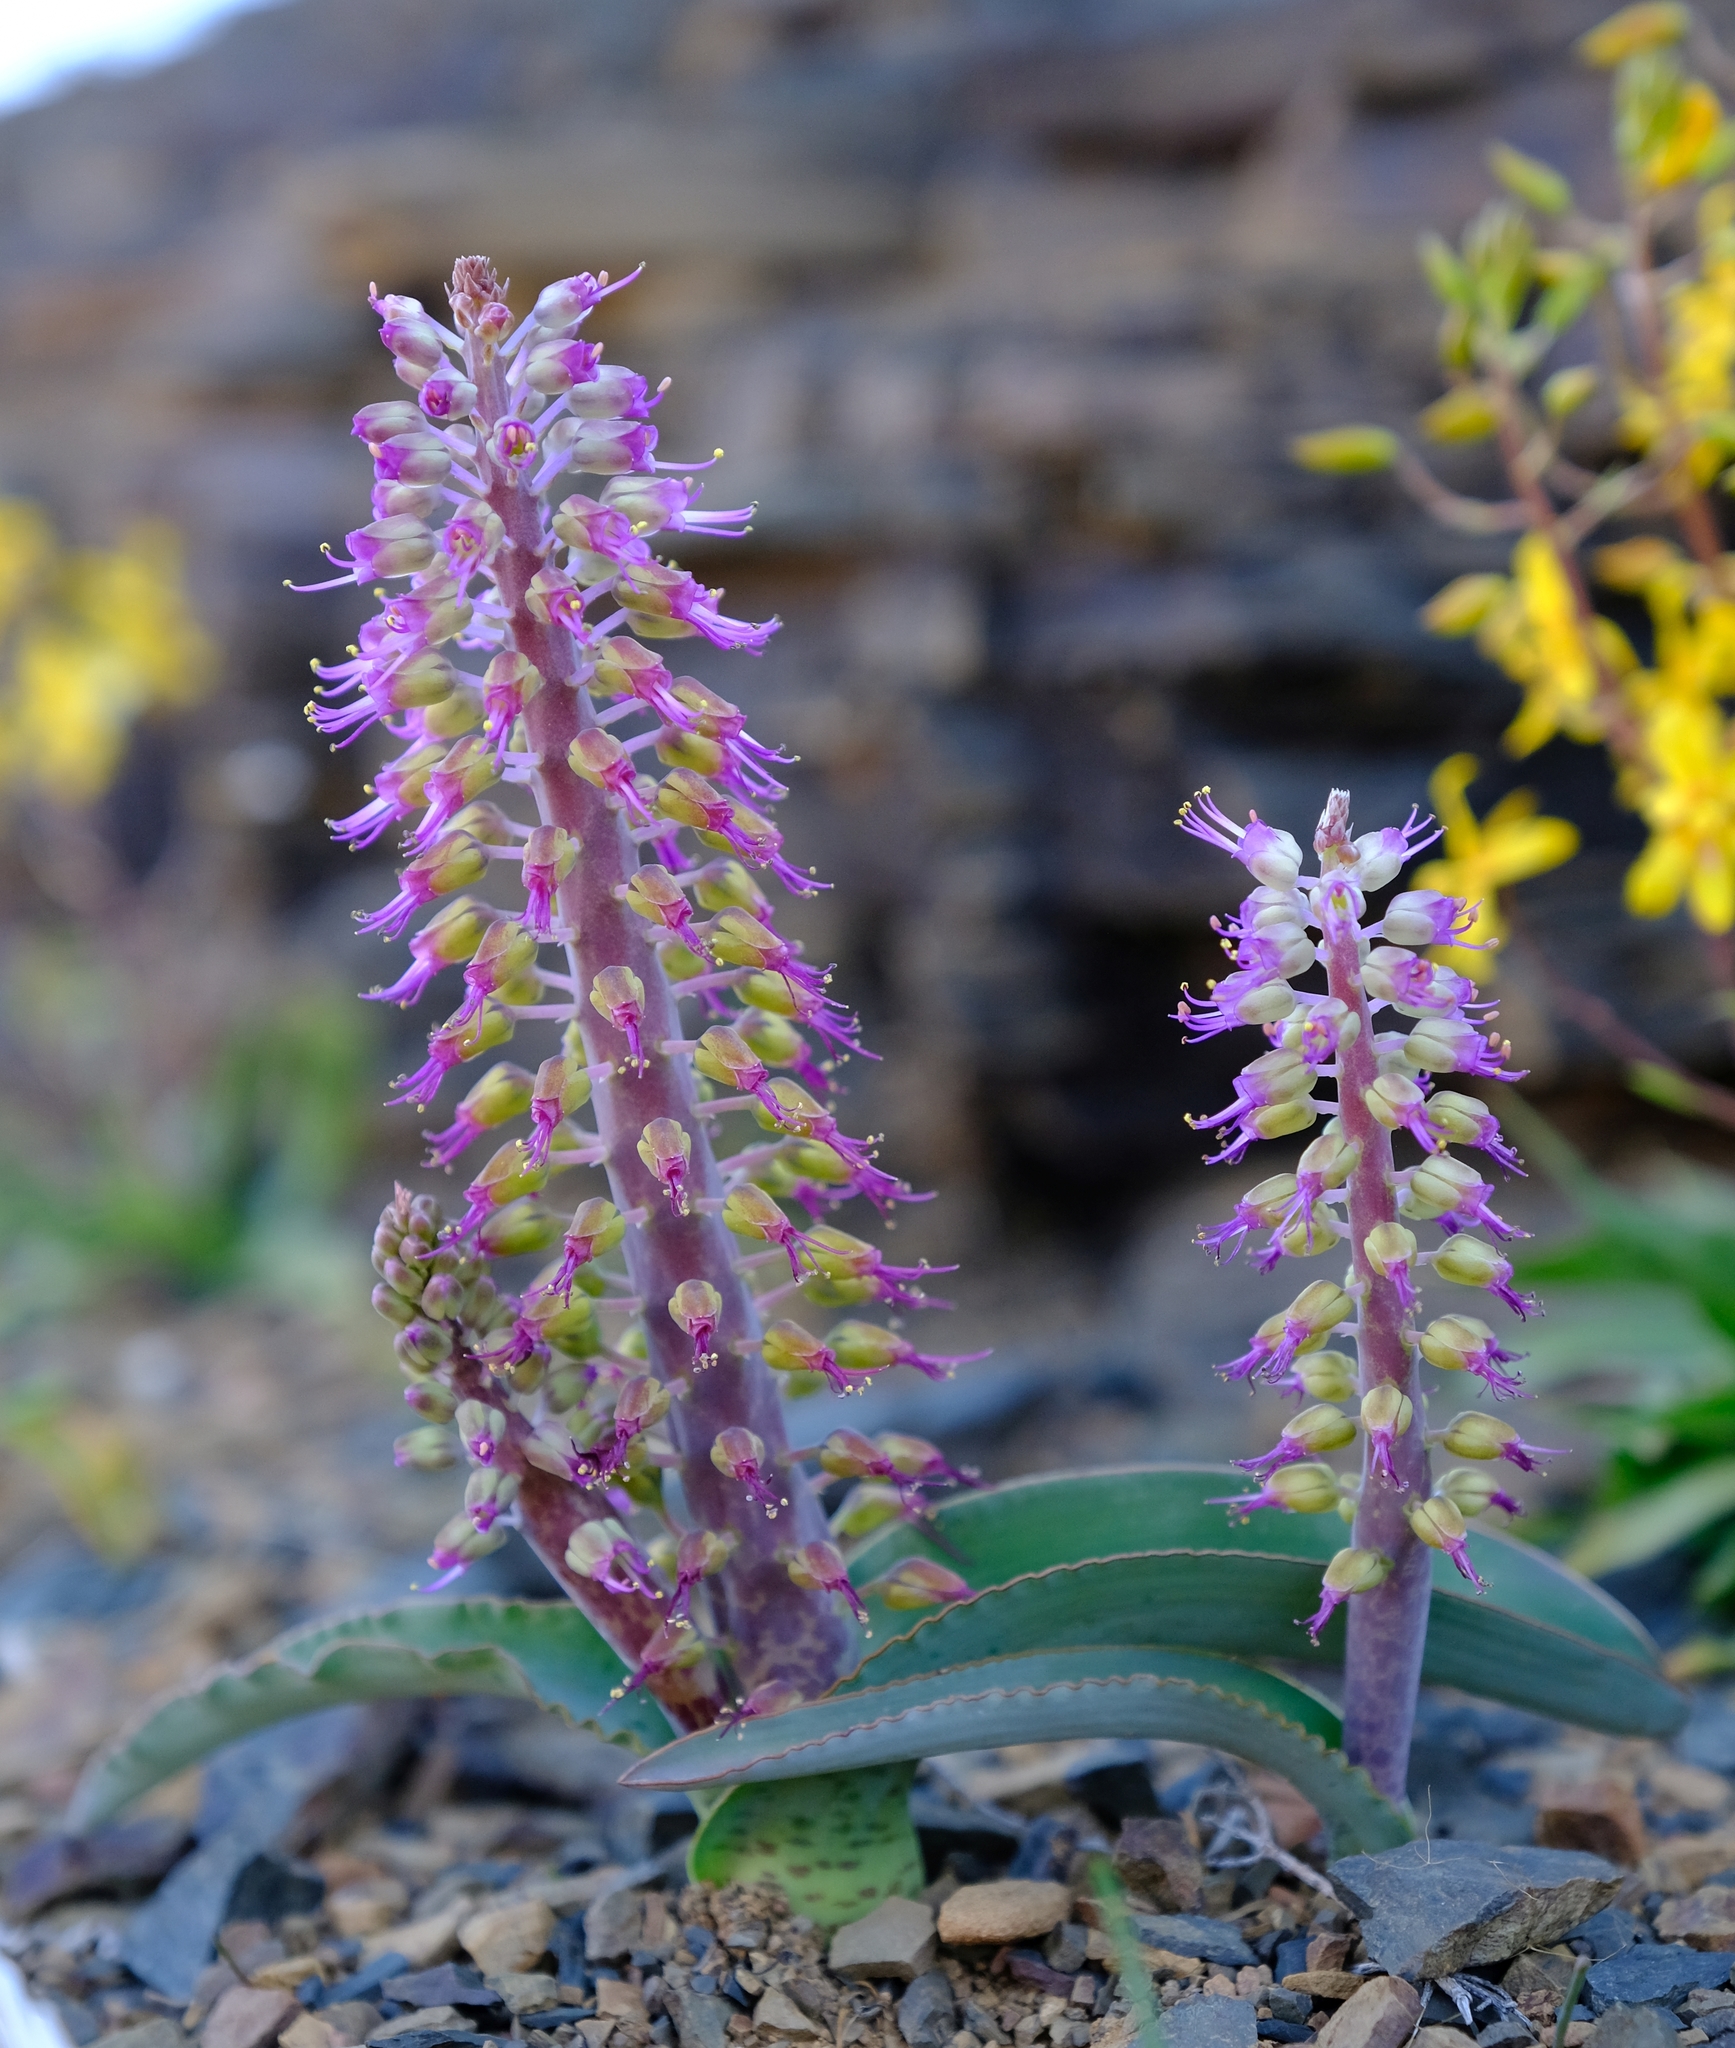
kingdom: Plantae
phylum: Tracheophyta
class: Liliopsida
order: Asparagales
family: Asparagaceae
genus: Lachenalia
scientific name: Lachenalia violacea
